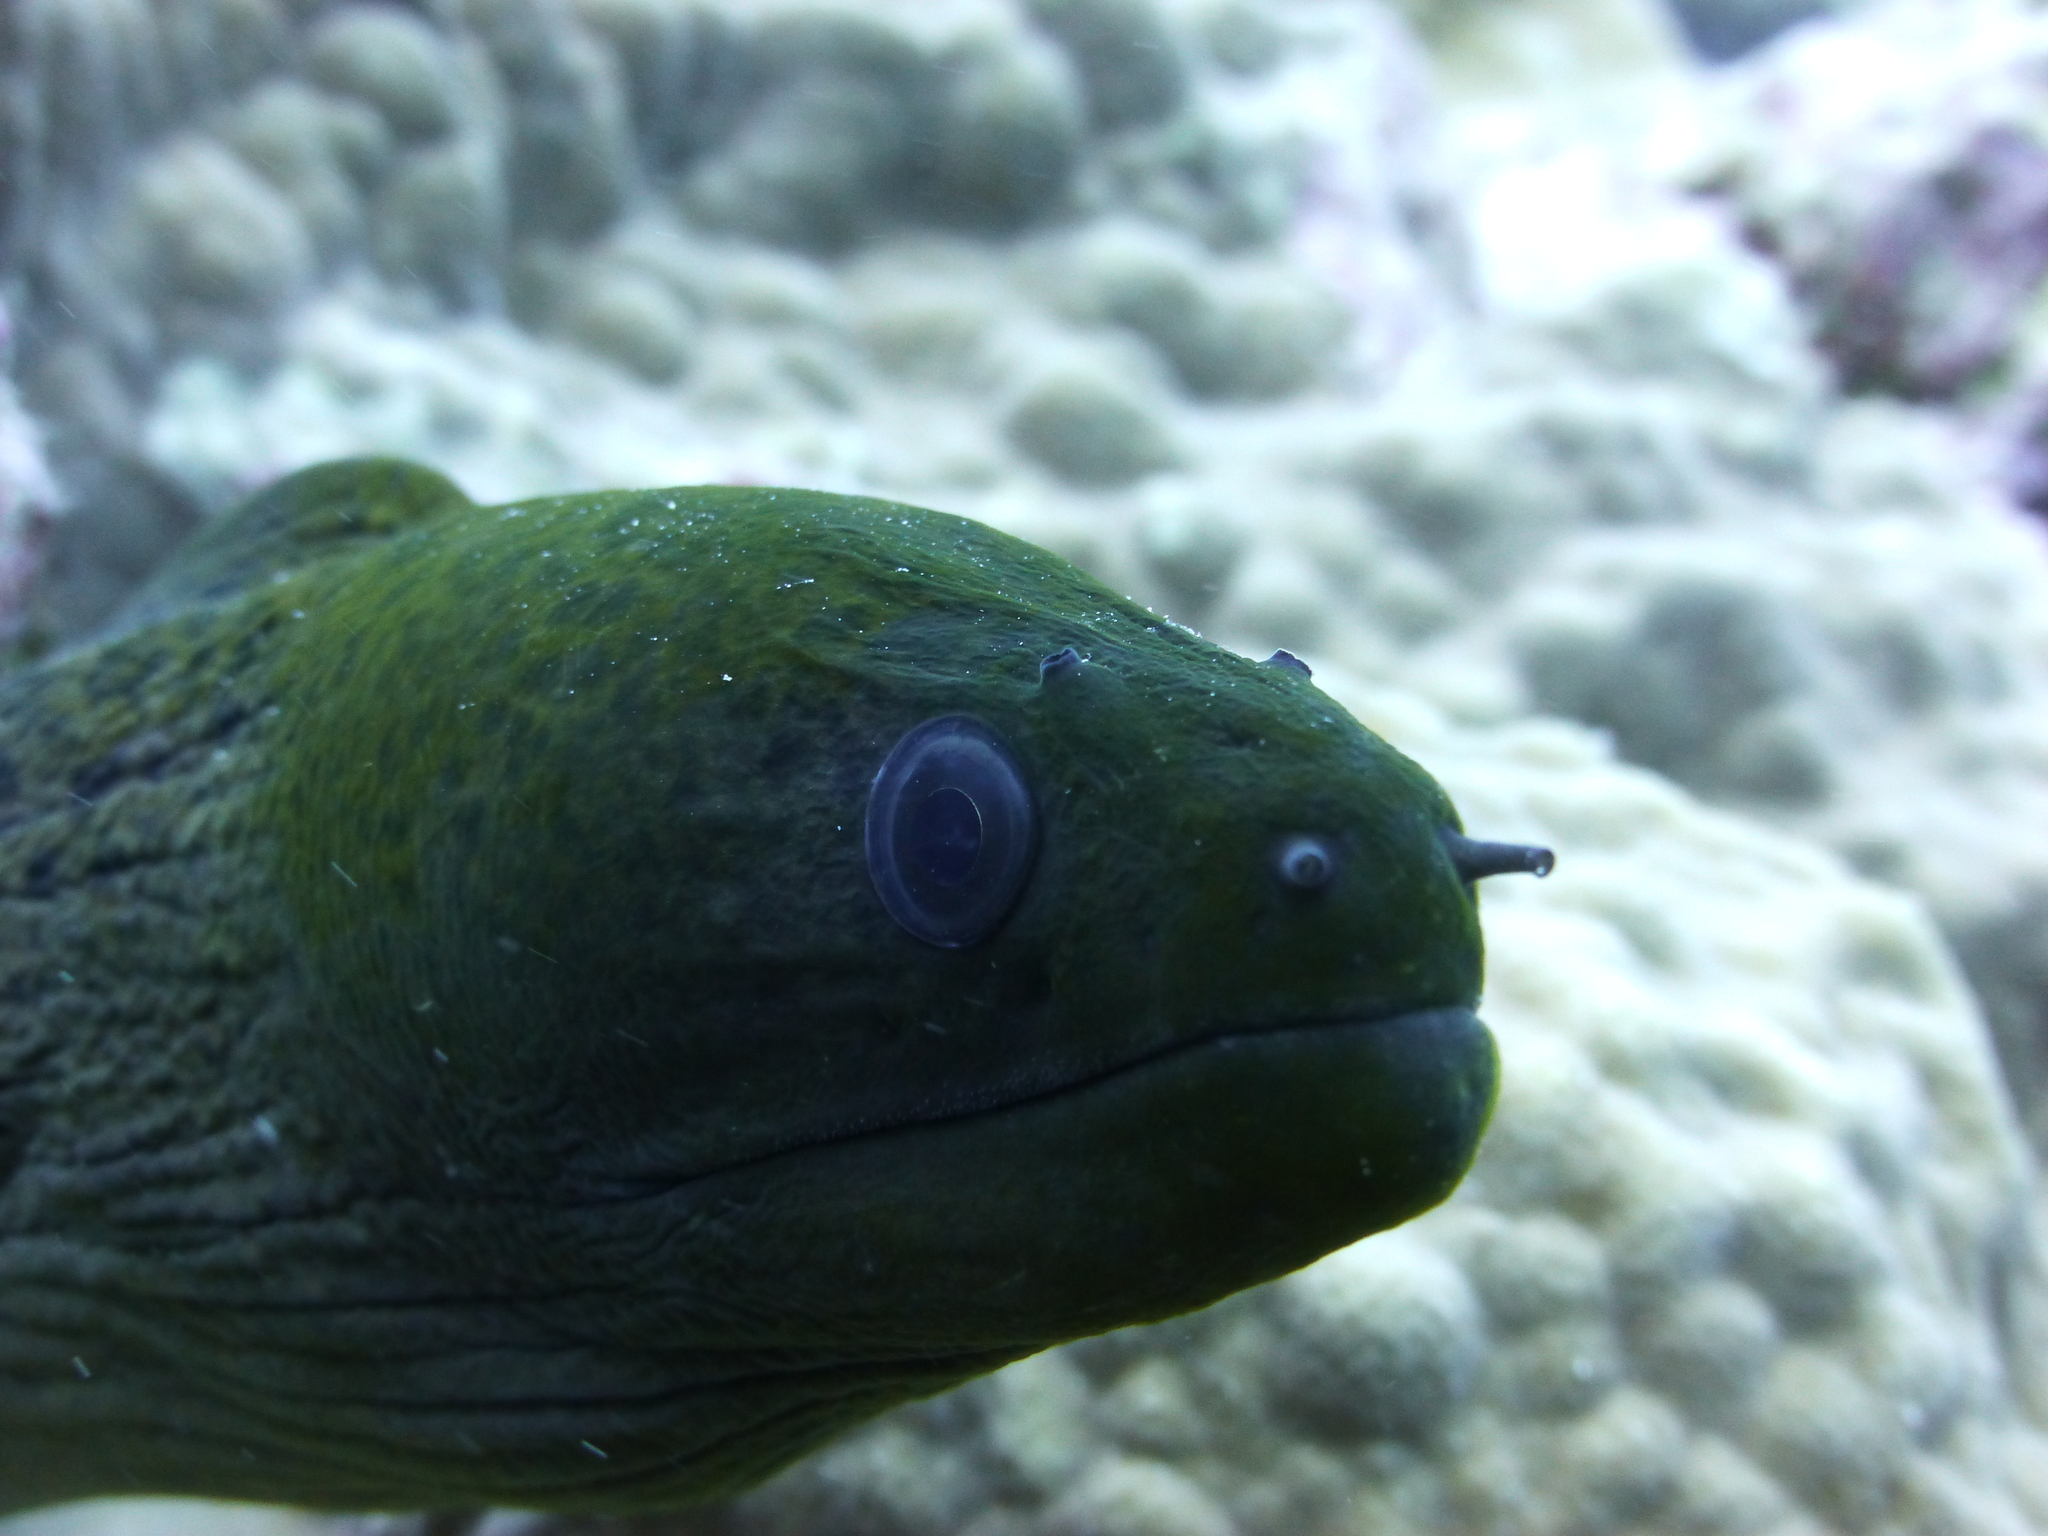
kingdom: Animalia
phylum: Chordata
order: Anguilliformes
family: Muraenidae
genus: Gymnothorax
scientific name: Gymnothorax javanicus
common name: Giant moray
